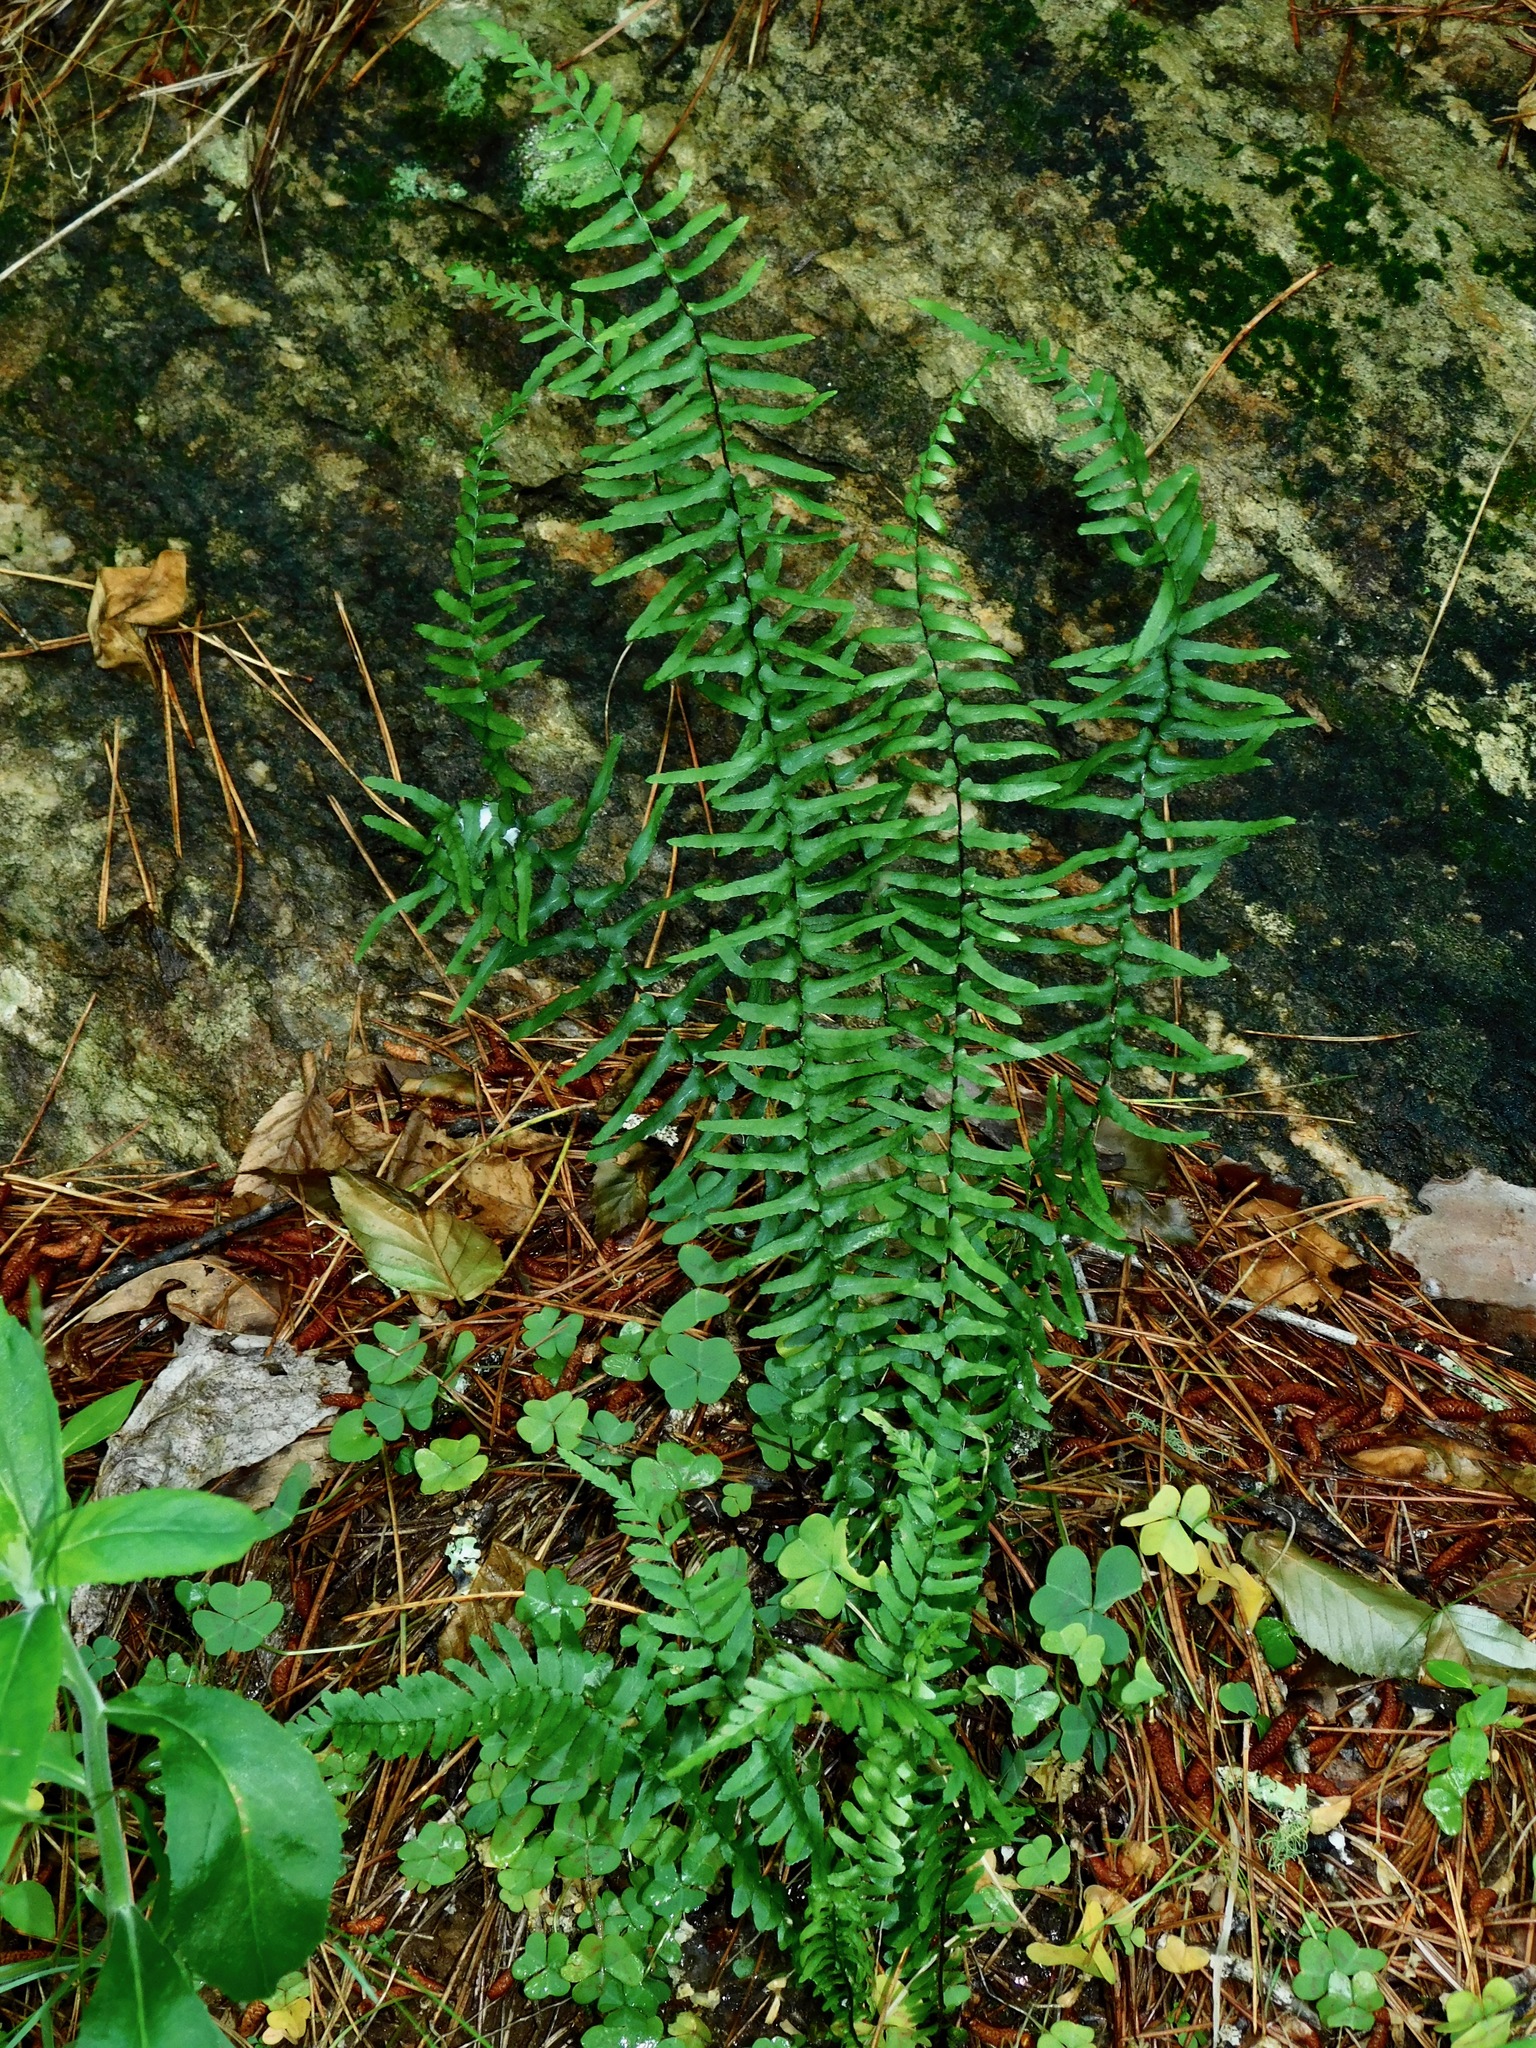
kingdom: Plantae
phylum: Tracheophyta
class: Polypodiopsida
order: Polypodiales
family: Aspleniaceae
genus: Asplenium
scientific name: Asplenium platyneuron
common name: Ebony spleenwort
